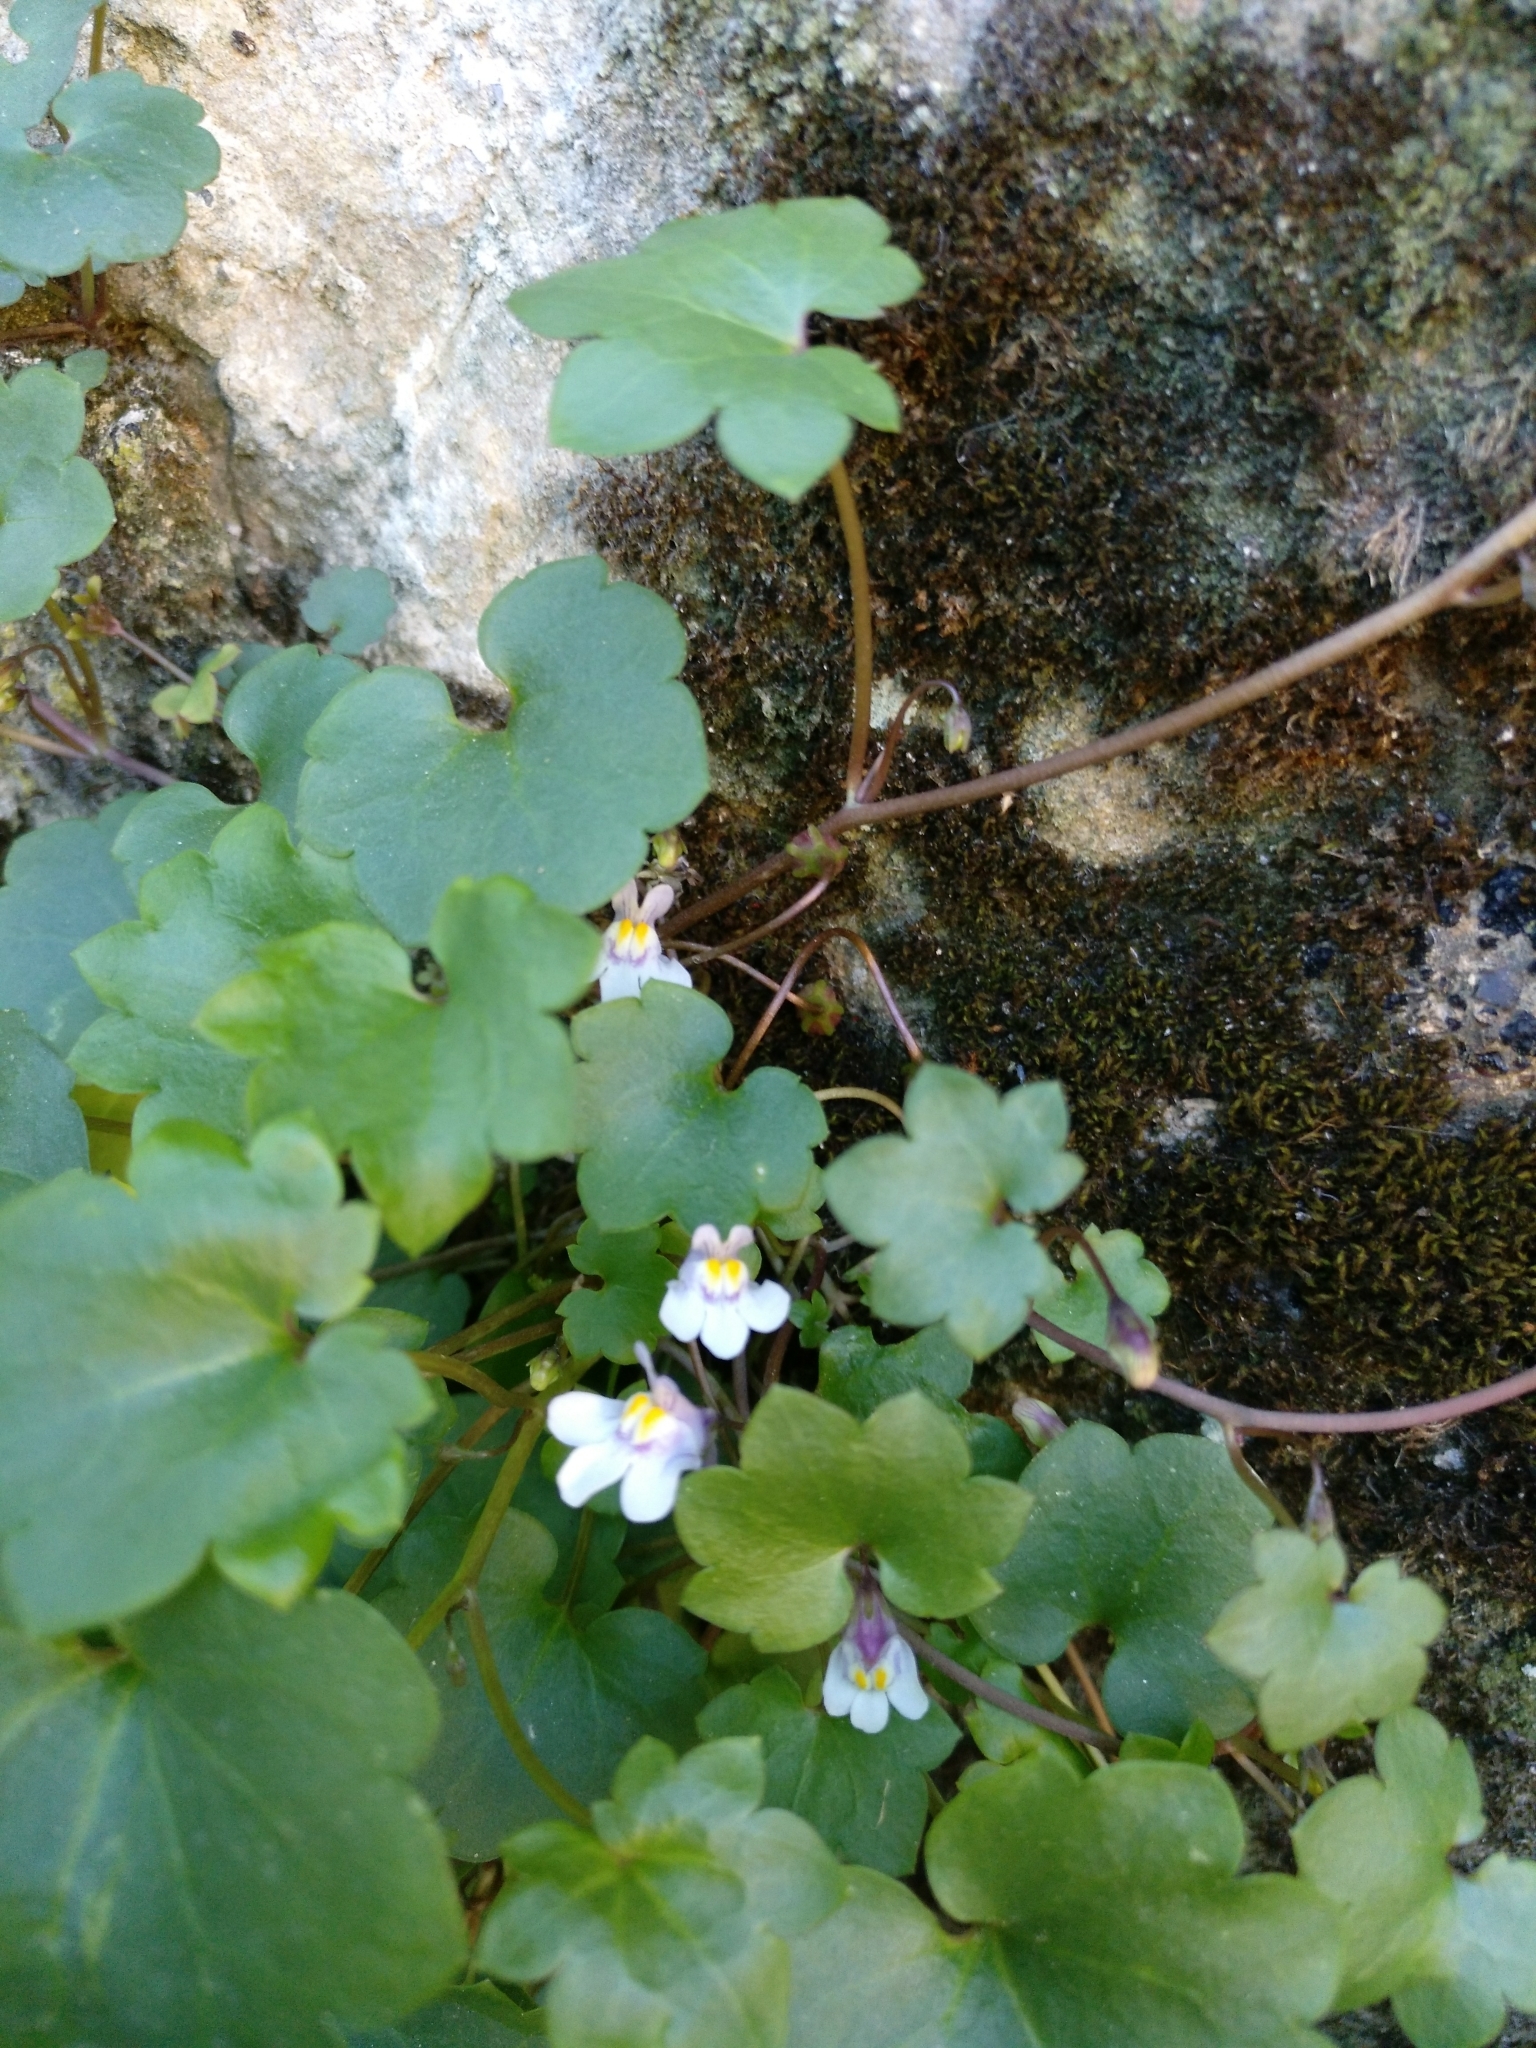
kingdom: Plantae
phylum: Tracheophyta
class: Magnoliopsida
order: Lamiales
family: Plantaginaceae
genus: Cymbalaria
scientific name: Cymbalaria muralis
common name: Ivy-leaved toadflax
